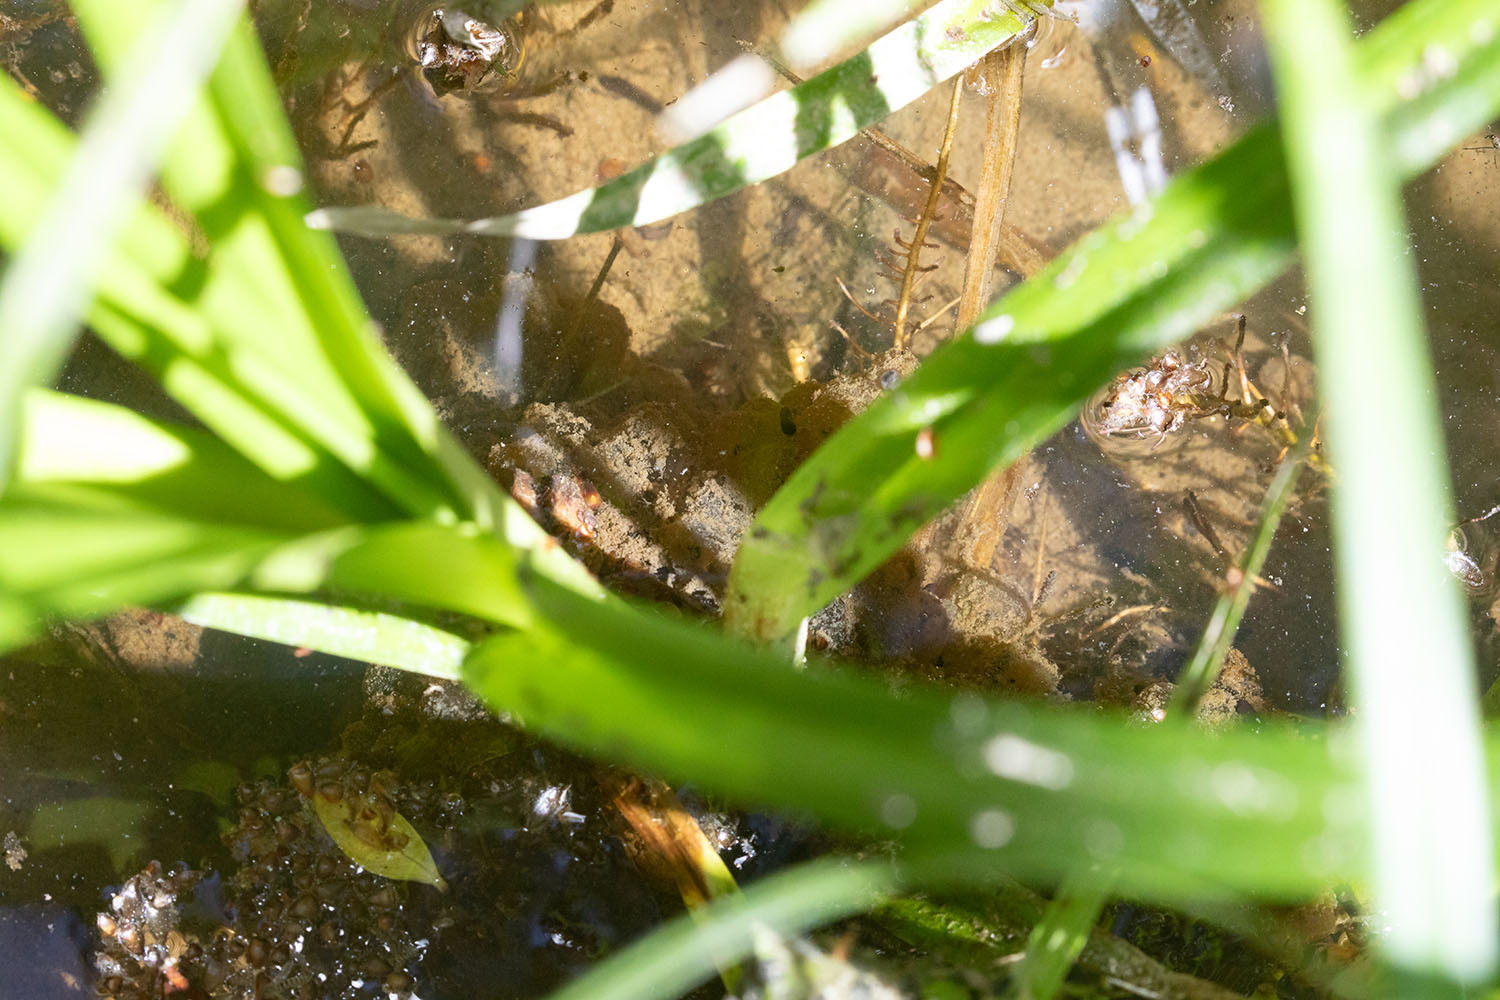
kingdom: Animalia
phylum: Chordata
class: Amphibia
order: Anura
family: Ranidae
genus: Rana
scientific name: Rana draytonii
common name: California red-legged frog
